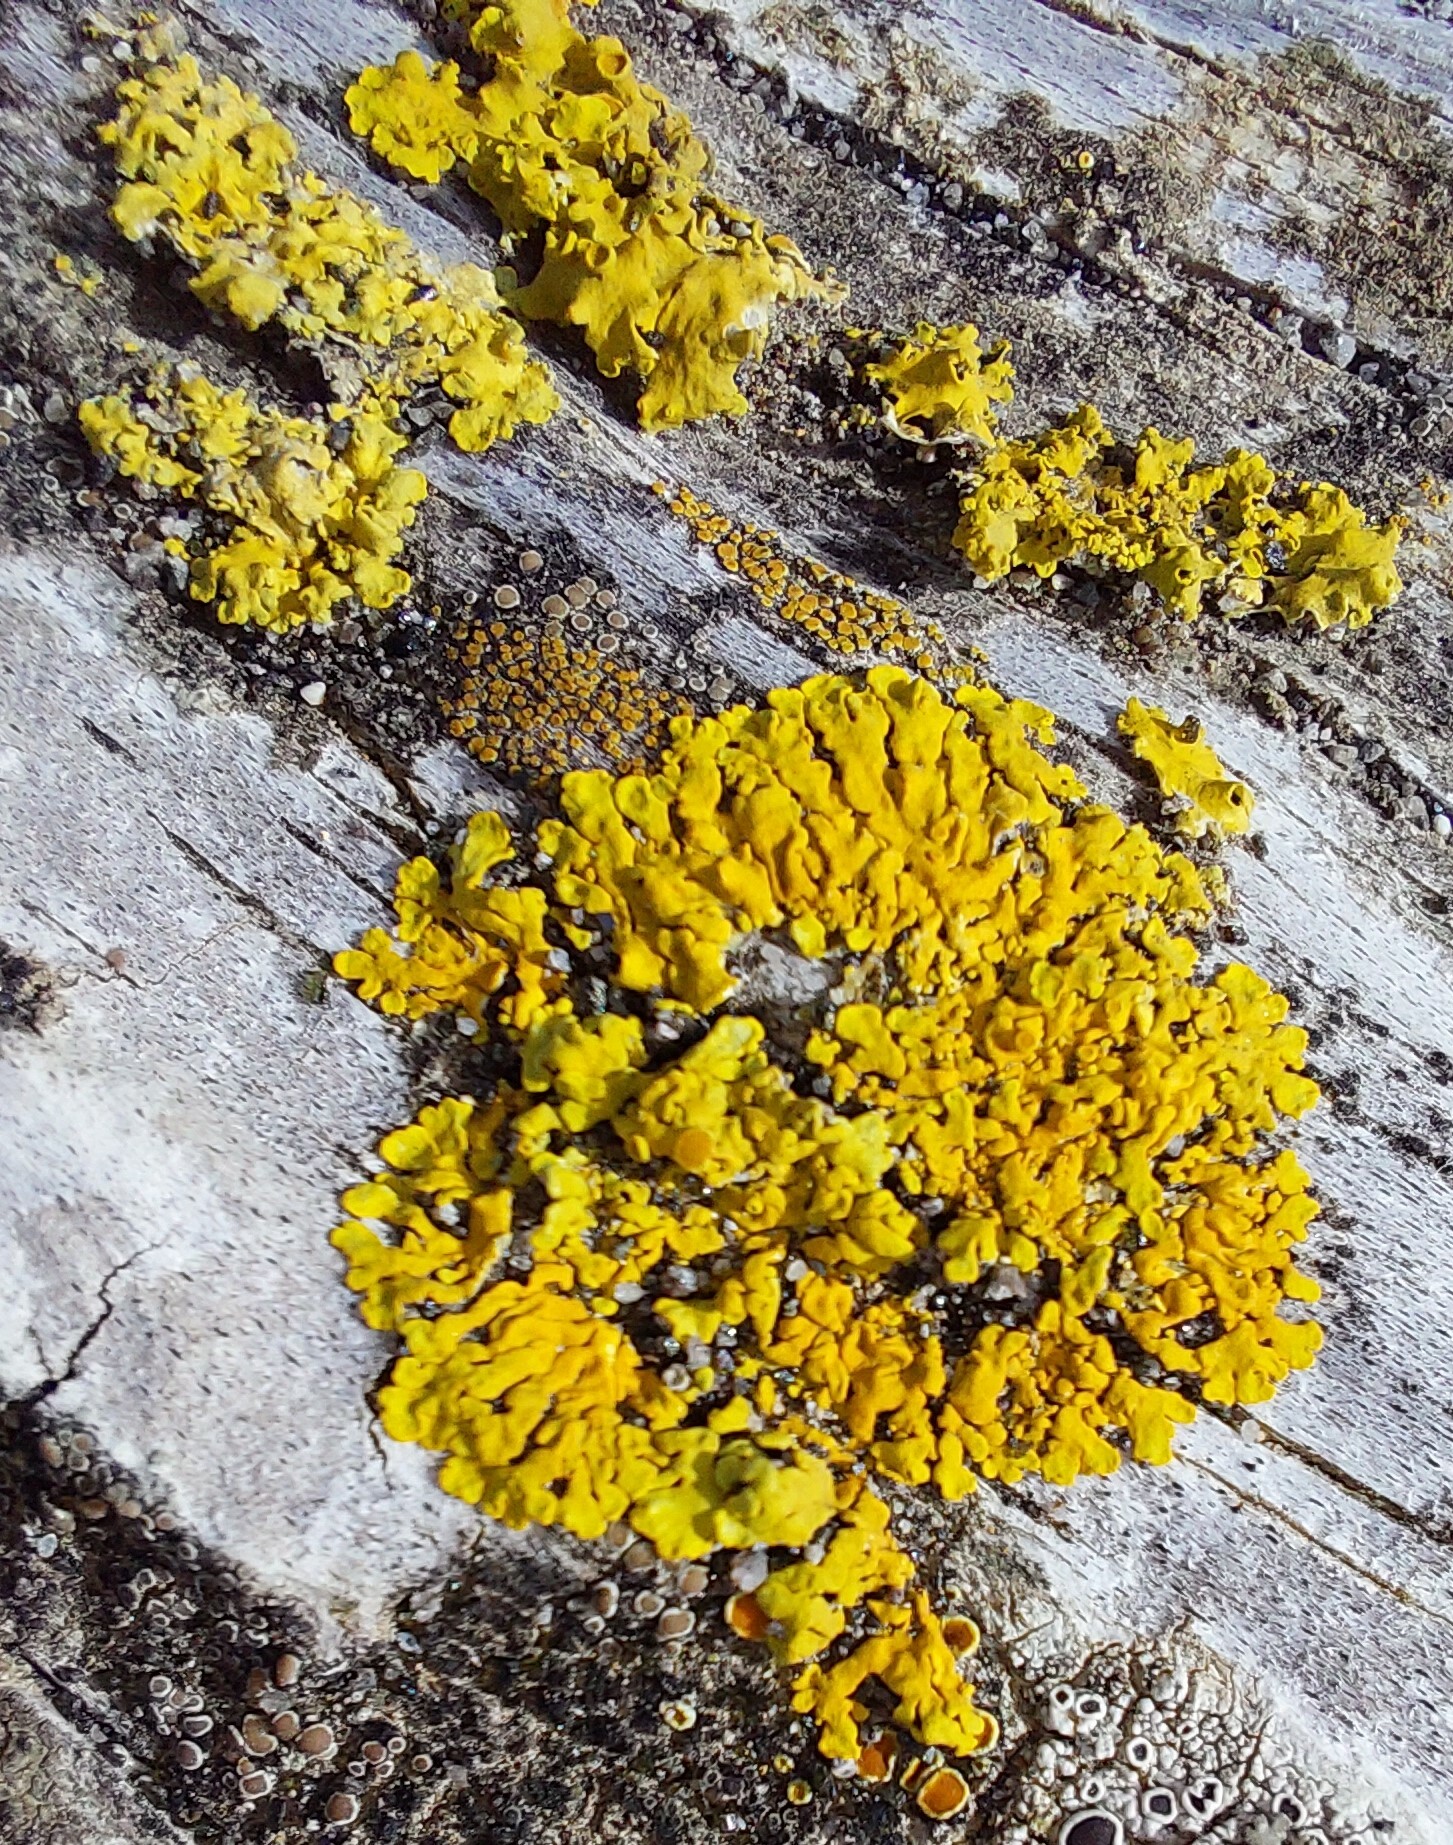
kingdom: Fungi
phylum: Ascomycota
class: Lecanoromycetes
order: Teloschistales
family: Teloschistaceae
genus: Xanthoria
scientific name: Xanthoria parietina
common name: Common orange lichen
